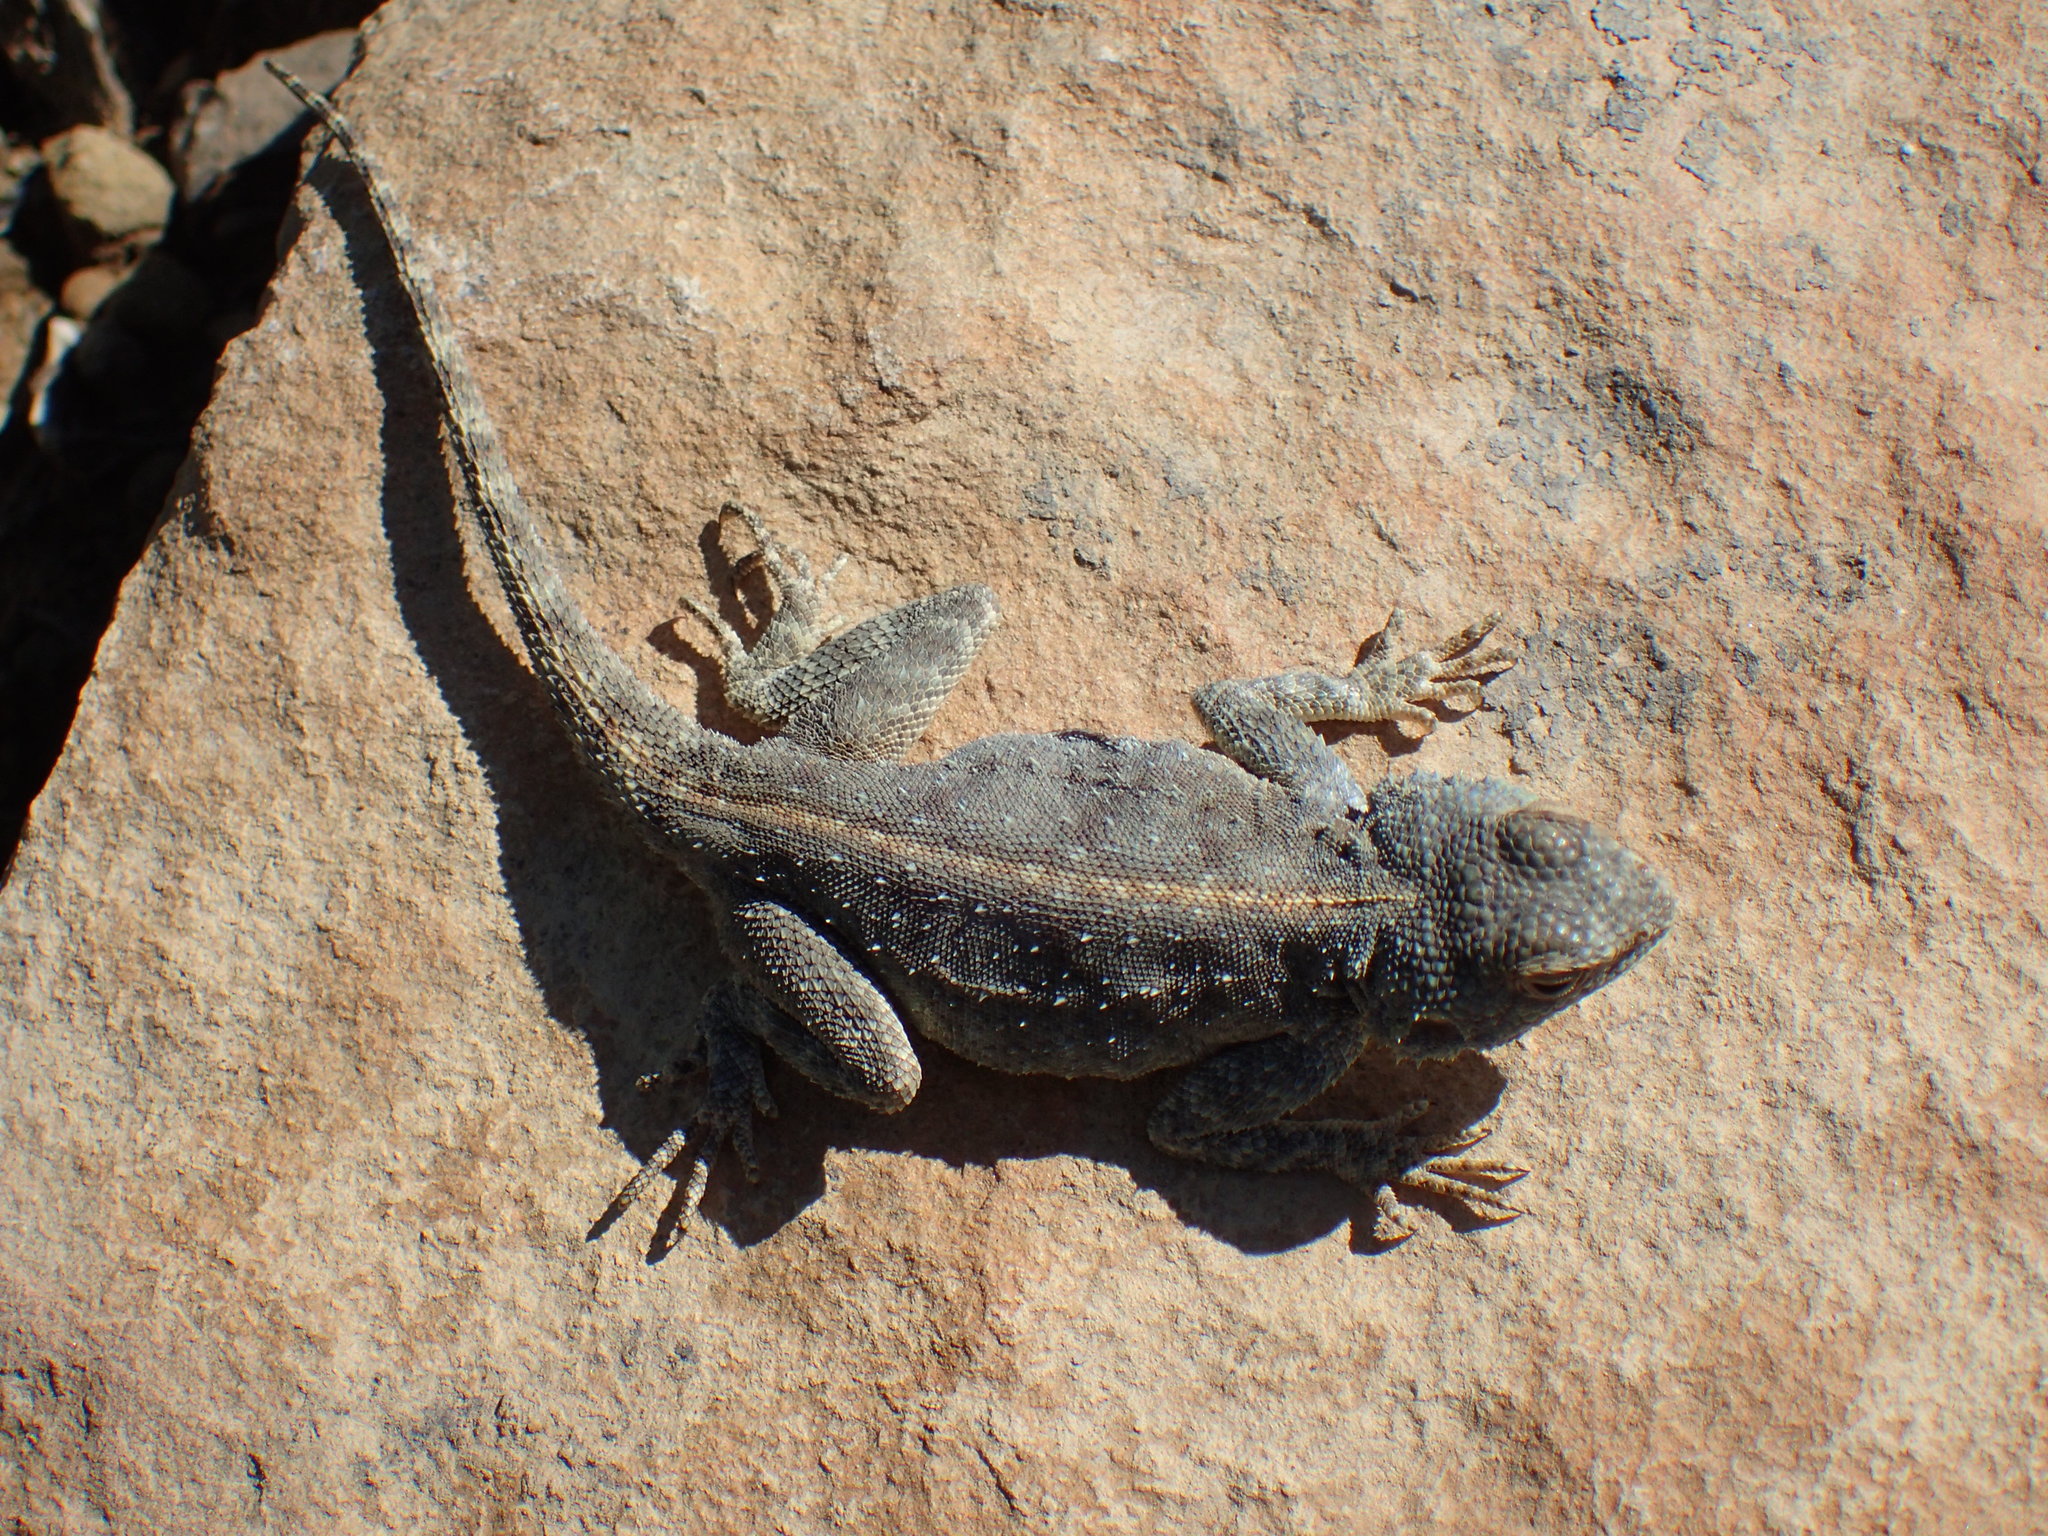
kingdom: Animalia
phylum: Chordata
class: Squamata
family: Agamidae
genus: Agama
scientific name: Agama atra
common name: Southern african rock agama
